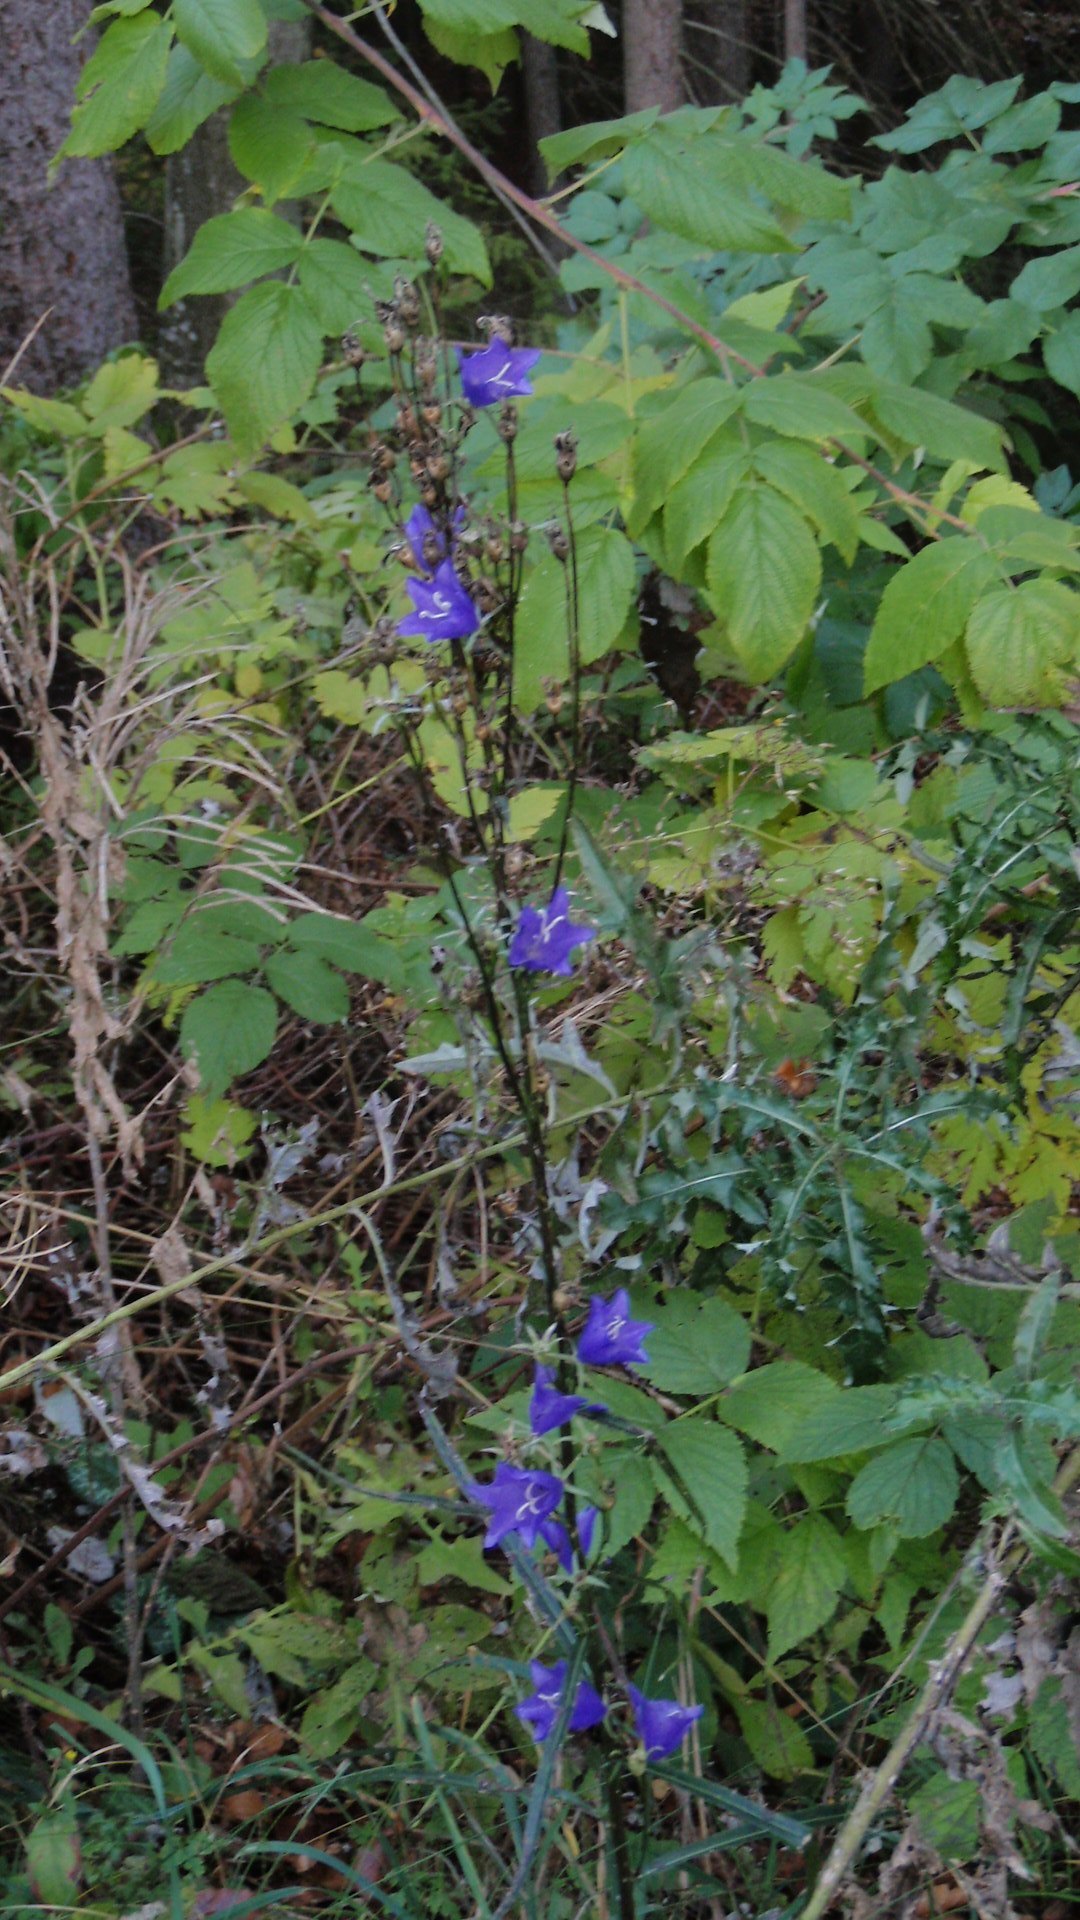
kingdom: Plantae
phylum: Tracheophyta
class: Magnoliopsida
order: Asterales
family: Campanulaceae
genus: Campanula
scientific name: Campanula persicifolia
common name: Peach-leaved bellflower
